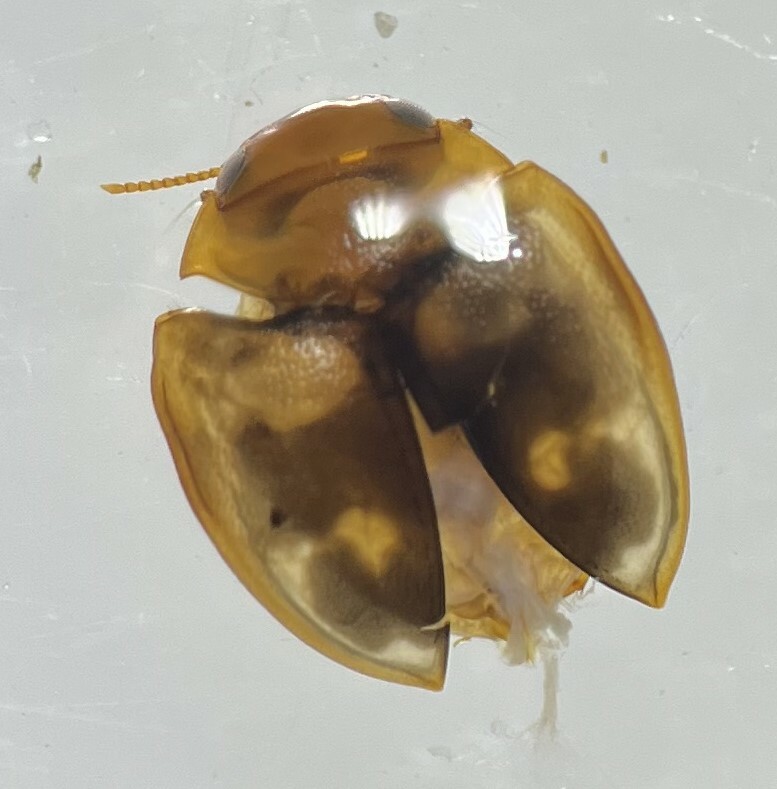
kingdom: Animalia
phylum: Arthropoda
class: Insecta
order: Coleoptera
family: Dytiscidae
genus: Hydrovatus
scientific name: Hydrovatus hornii
